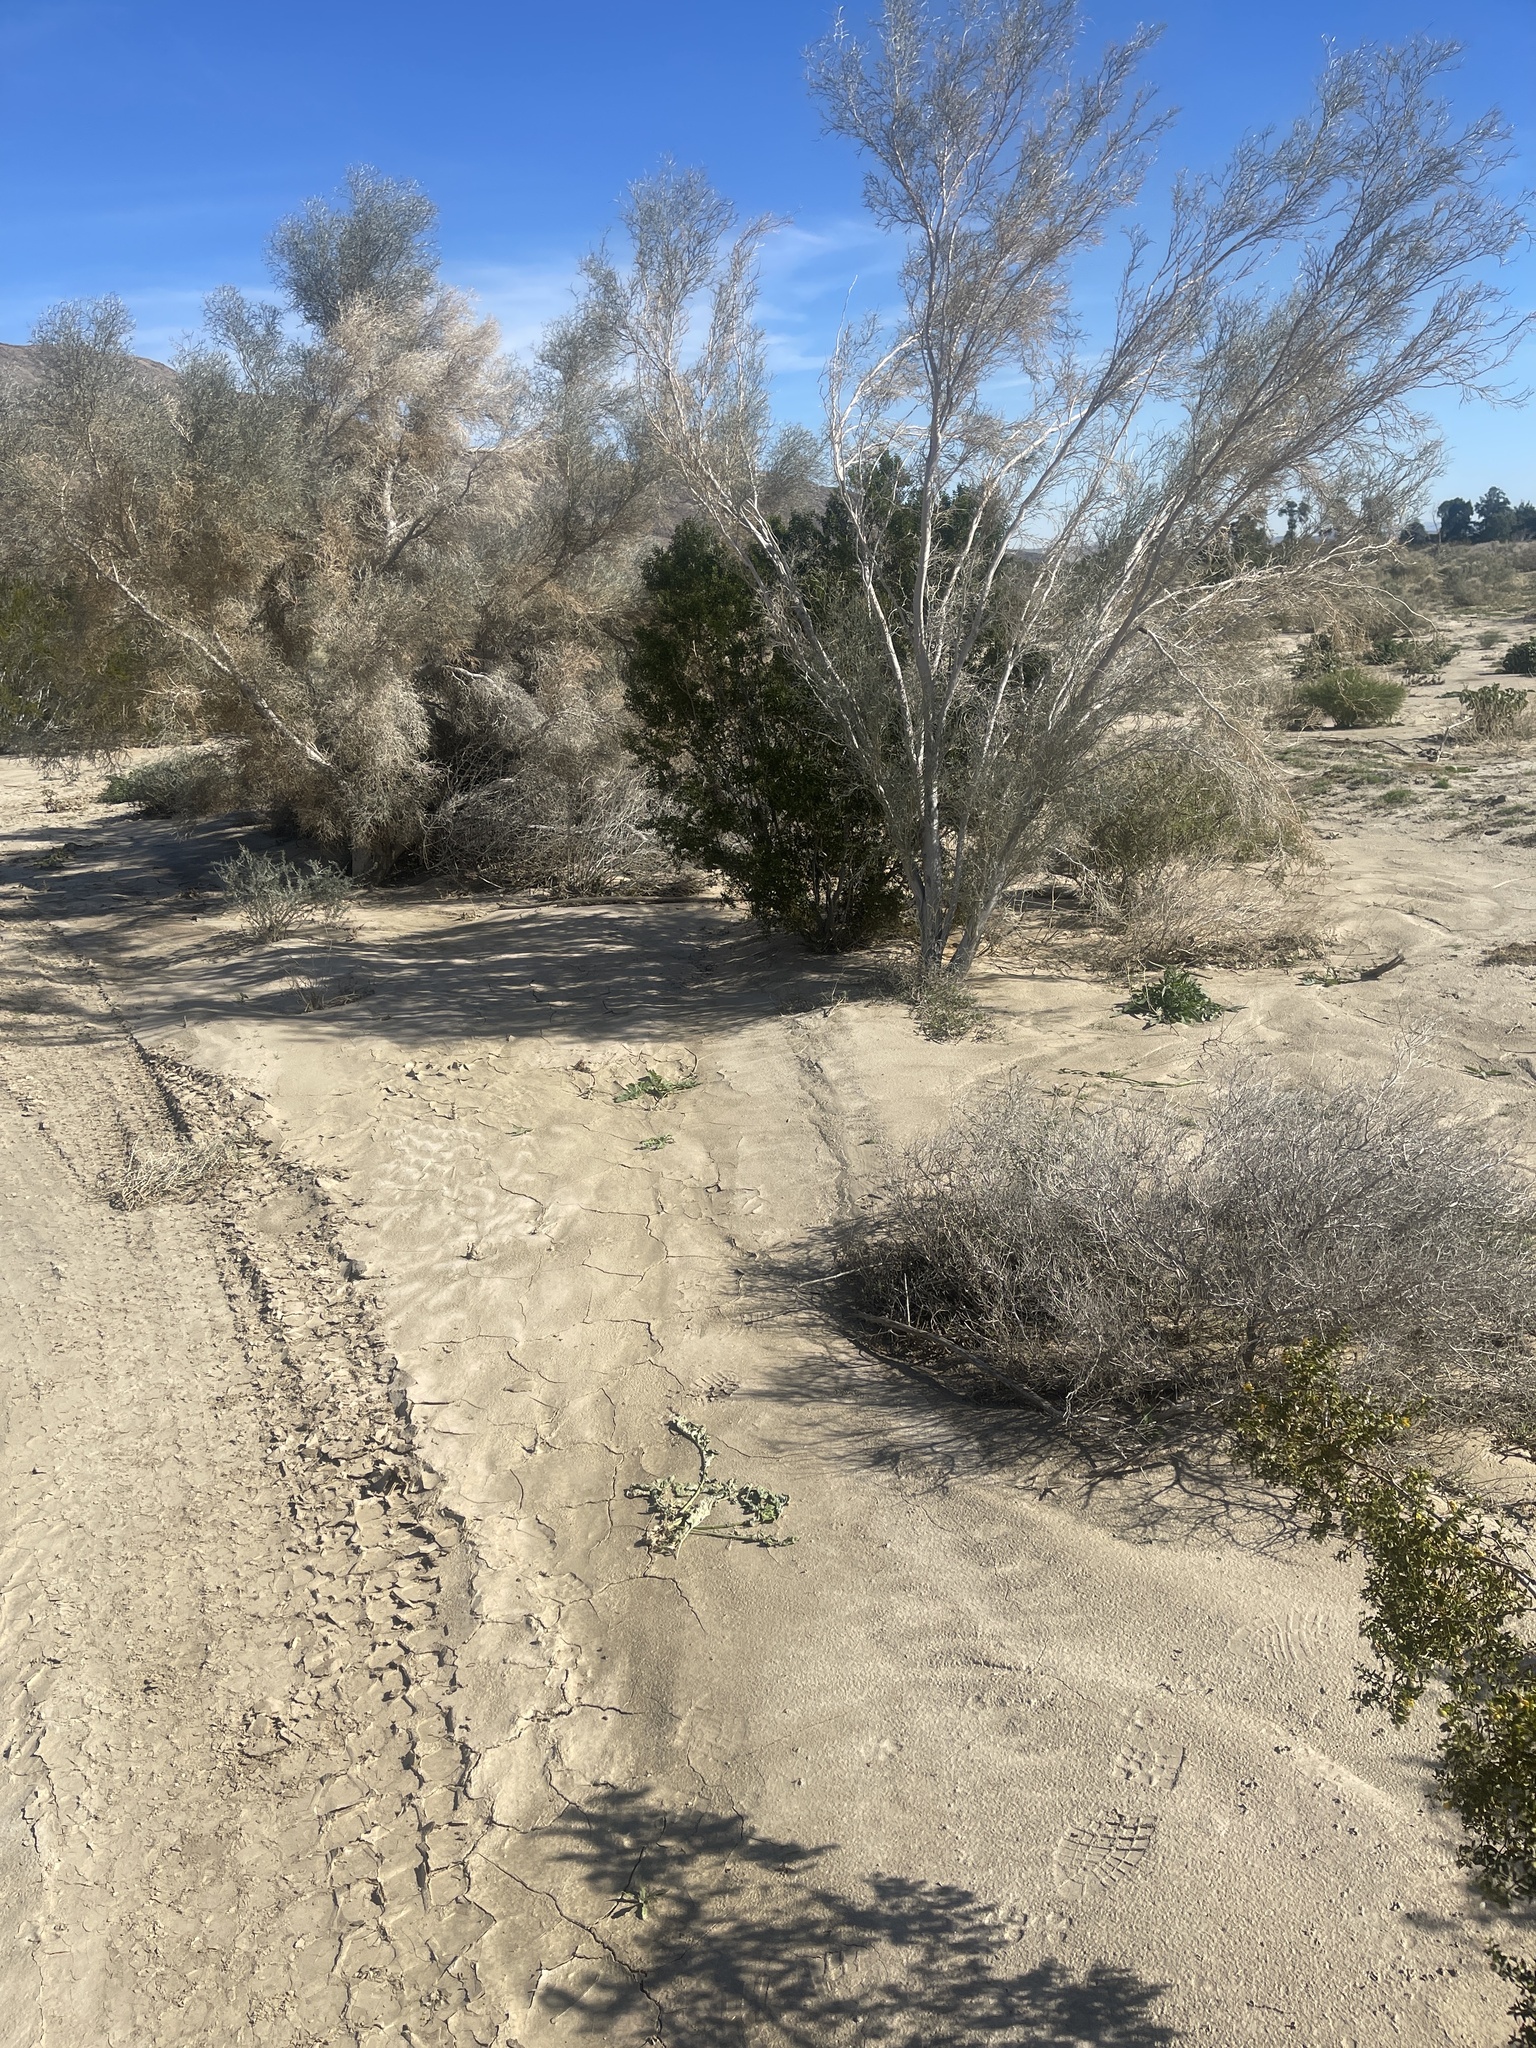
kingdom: Plantae
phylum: Tracheophyta
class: Magnoliopsida
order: Fabales
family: Fabaceae
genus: Psorothamnus
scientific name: Psorothamnus spinosus
